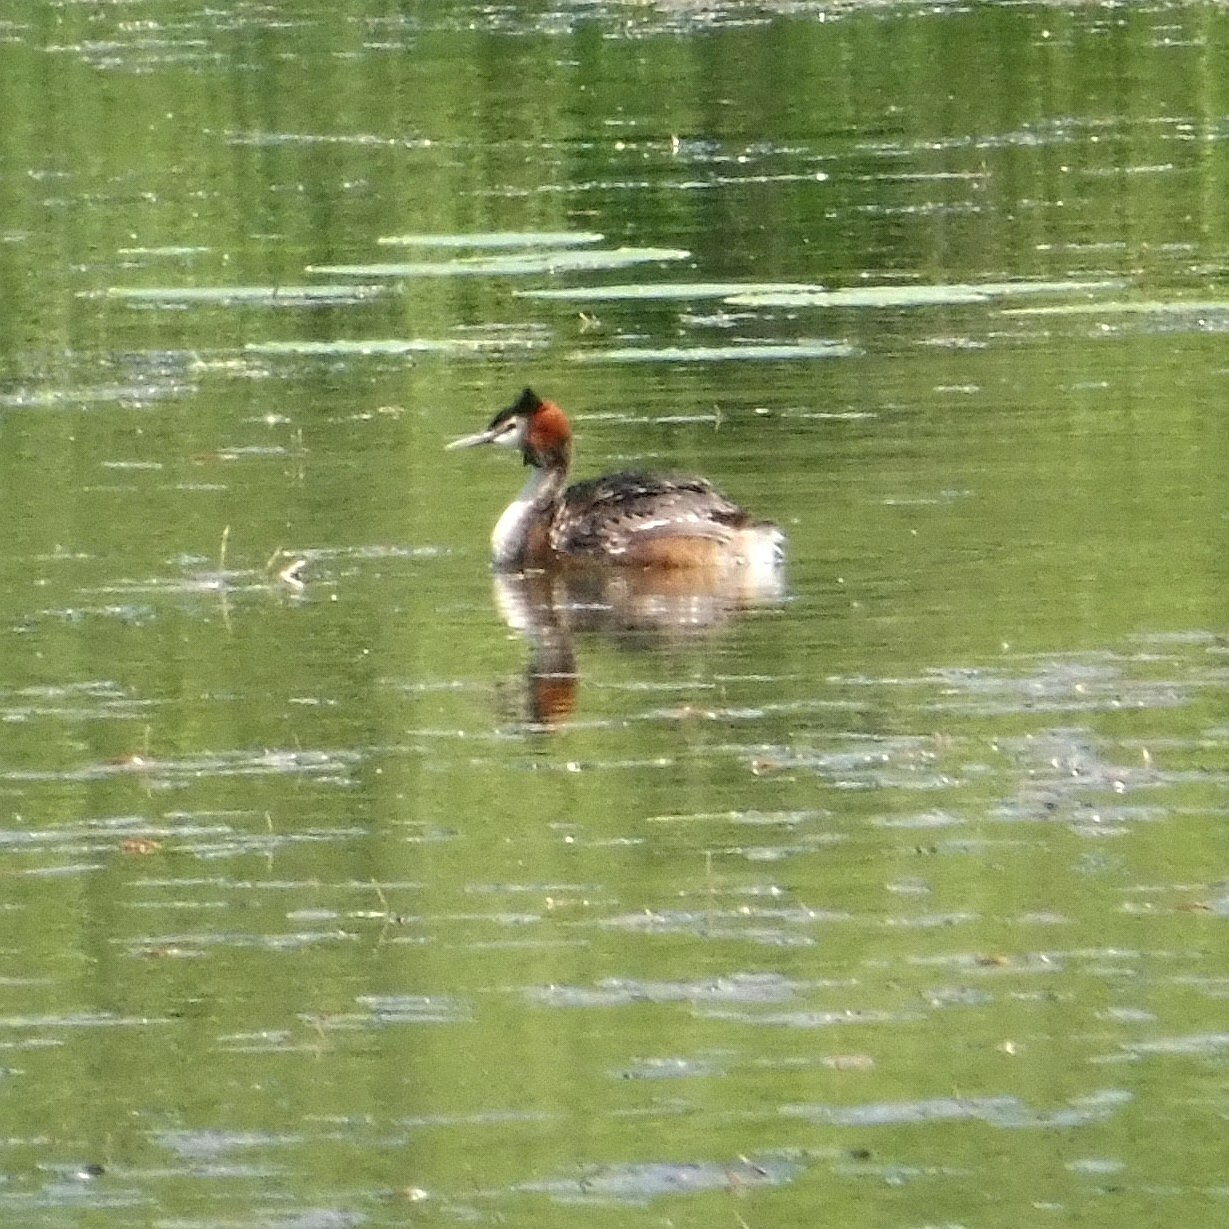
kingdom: Animalia
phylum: Chordata
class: Aves
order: Podicipediformes
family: Podicipedidae
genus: Podiceps
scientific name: Podiceps cristatus
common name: Great crested grebe
